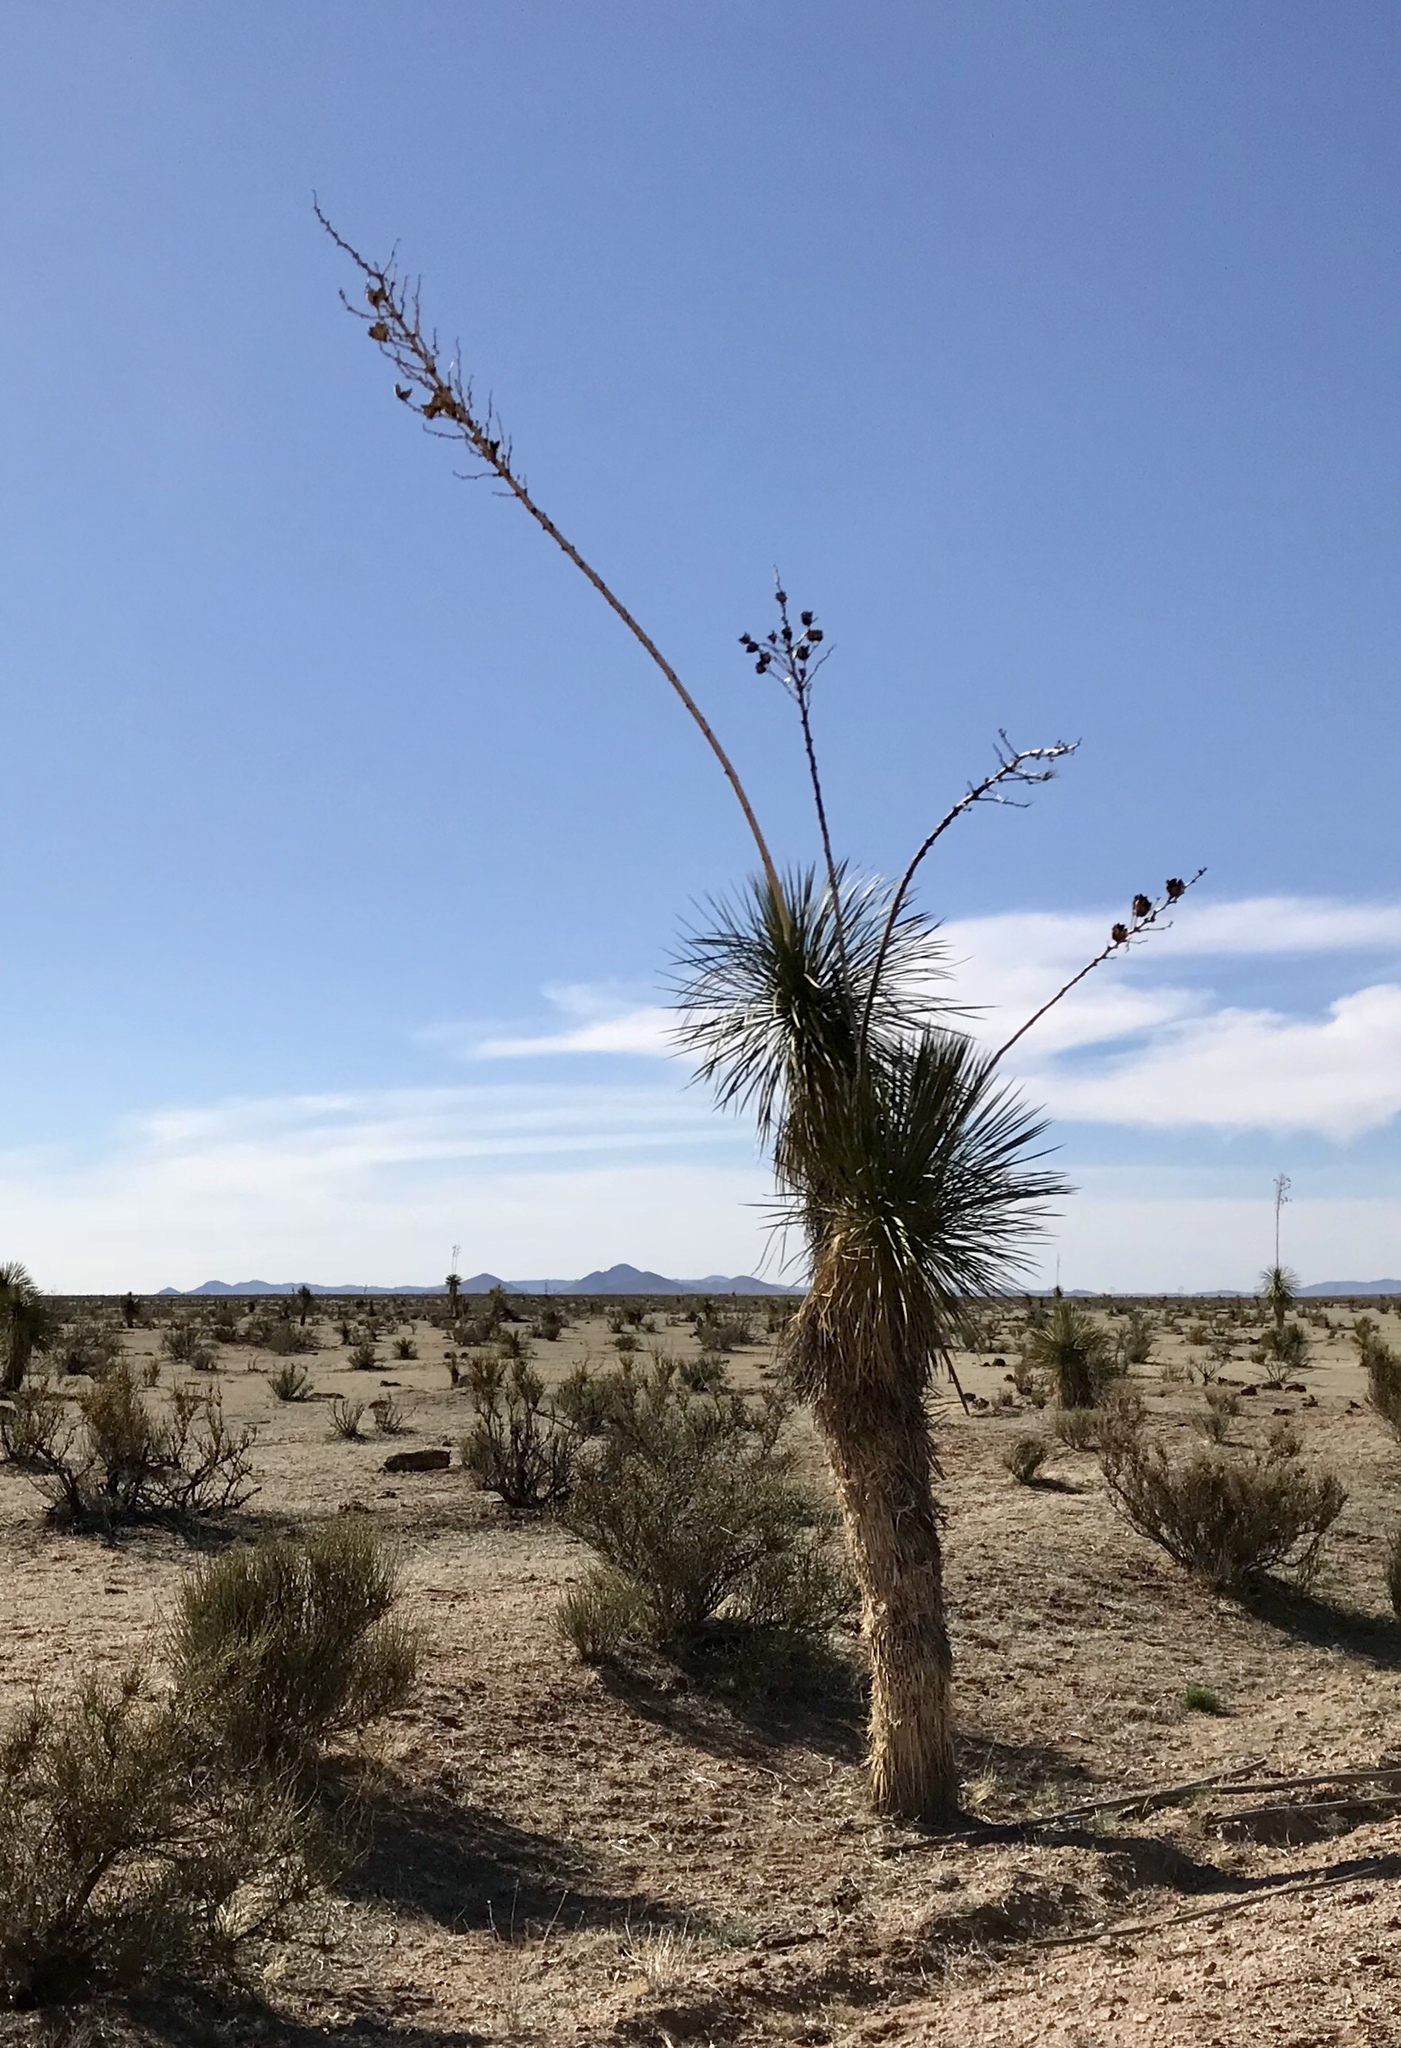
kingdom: Plantae
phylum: Tracheophyta
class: Liliopsida
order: Asparagales
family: Asparagaceae
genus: Yucca
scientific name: Yucca elata
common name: Palmella
